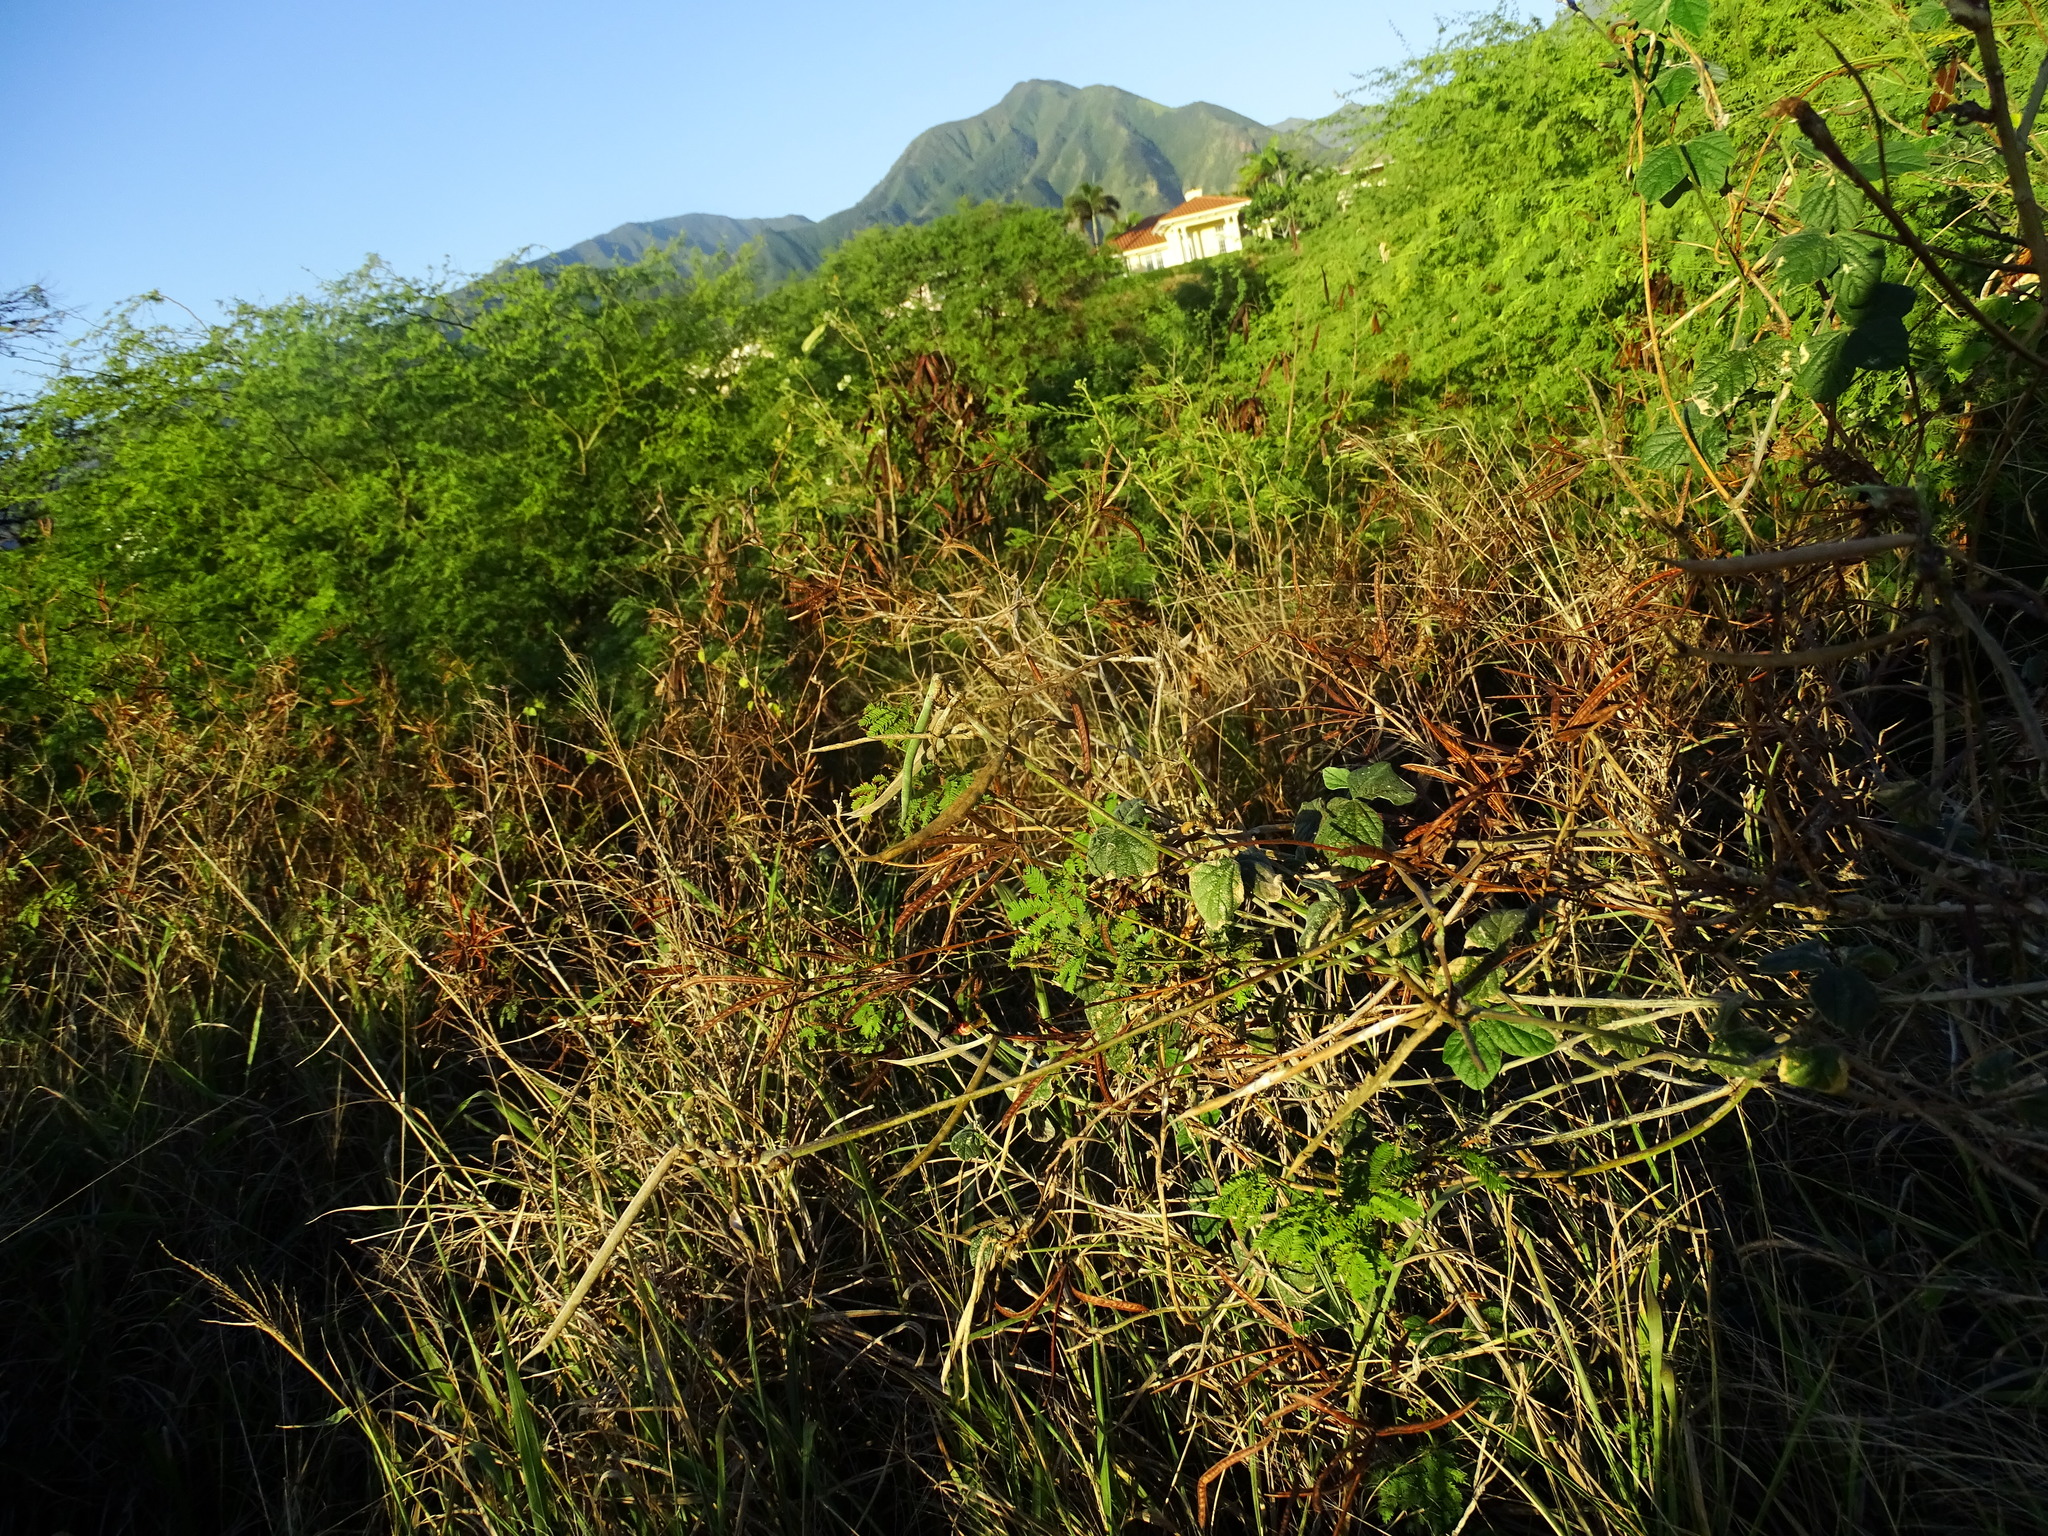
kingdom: Plantae
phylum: Tracheophyta
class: Magnoliopsida
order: Fabales
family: Fabaceae
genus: Macroptilium
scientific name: Macroptilium atropurpureum
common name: Purple bushbean
